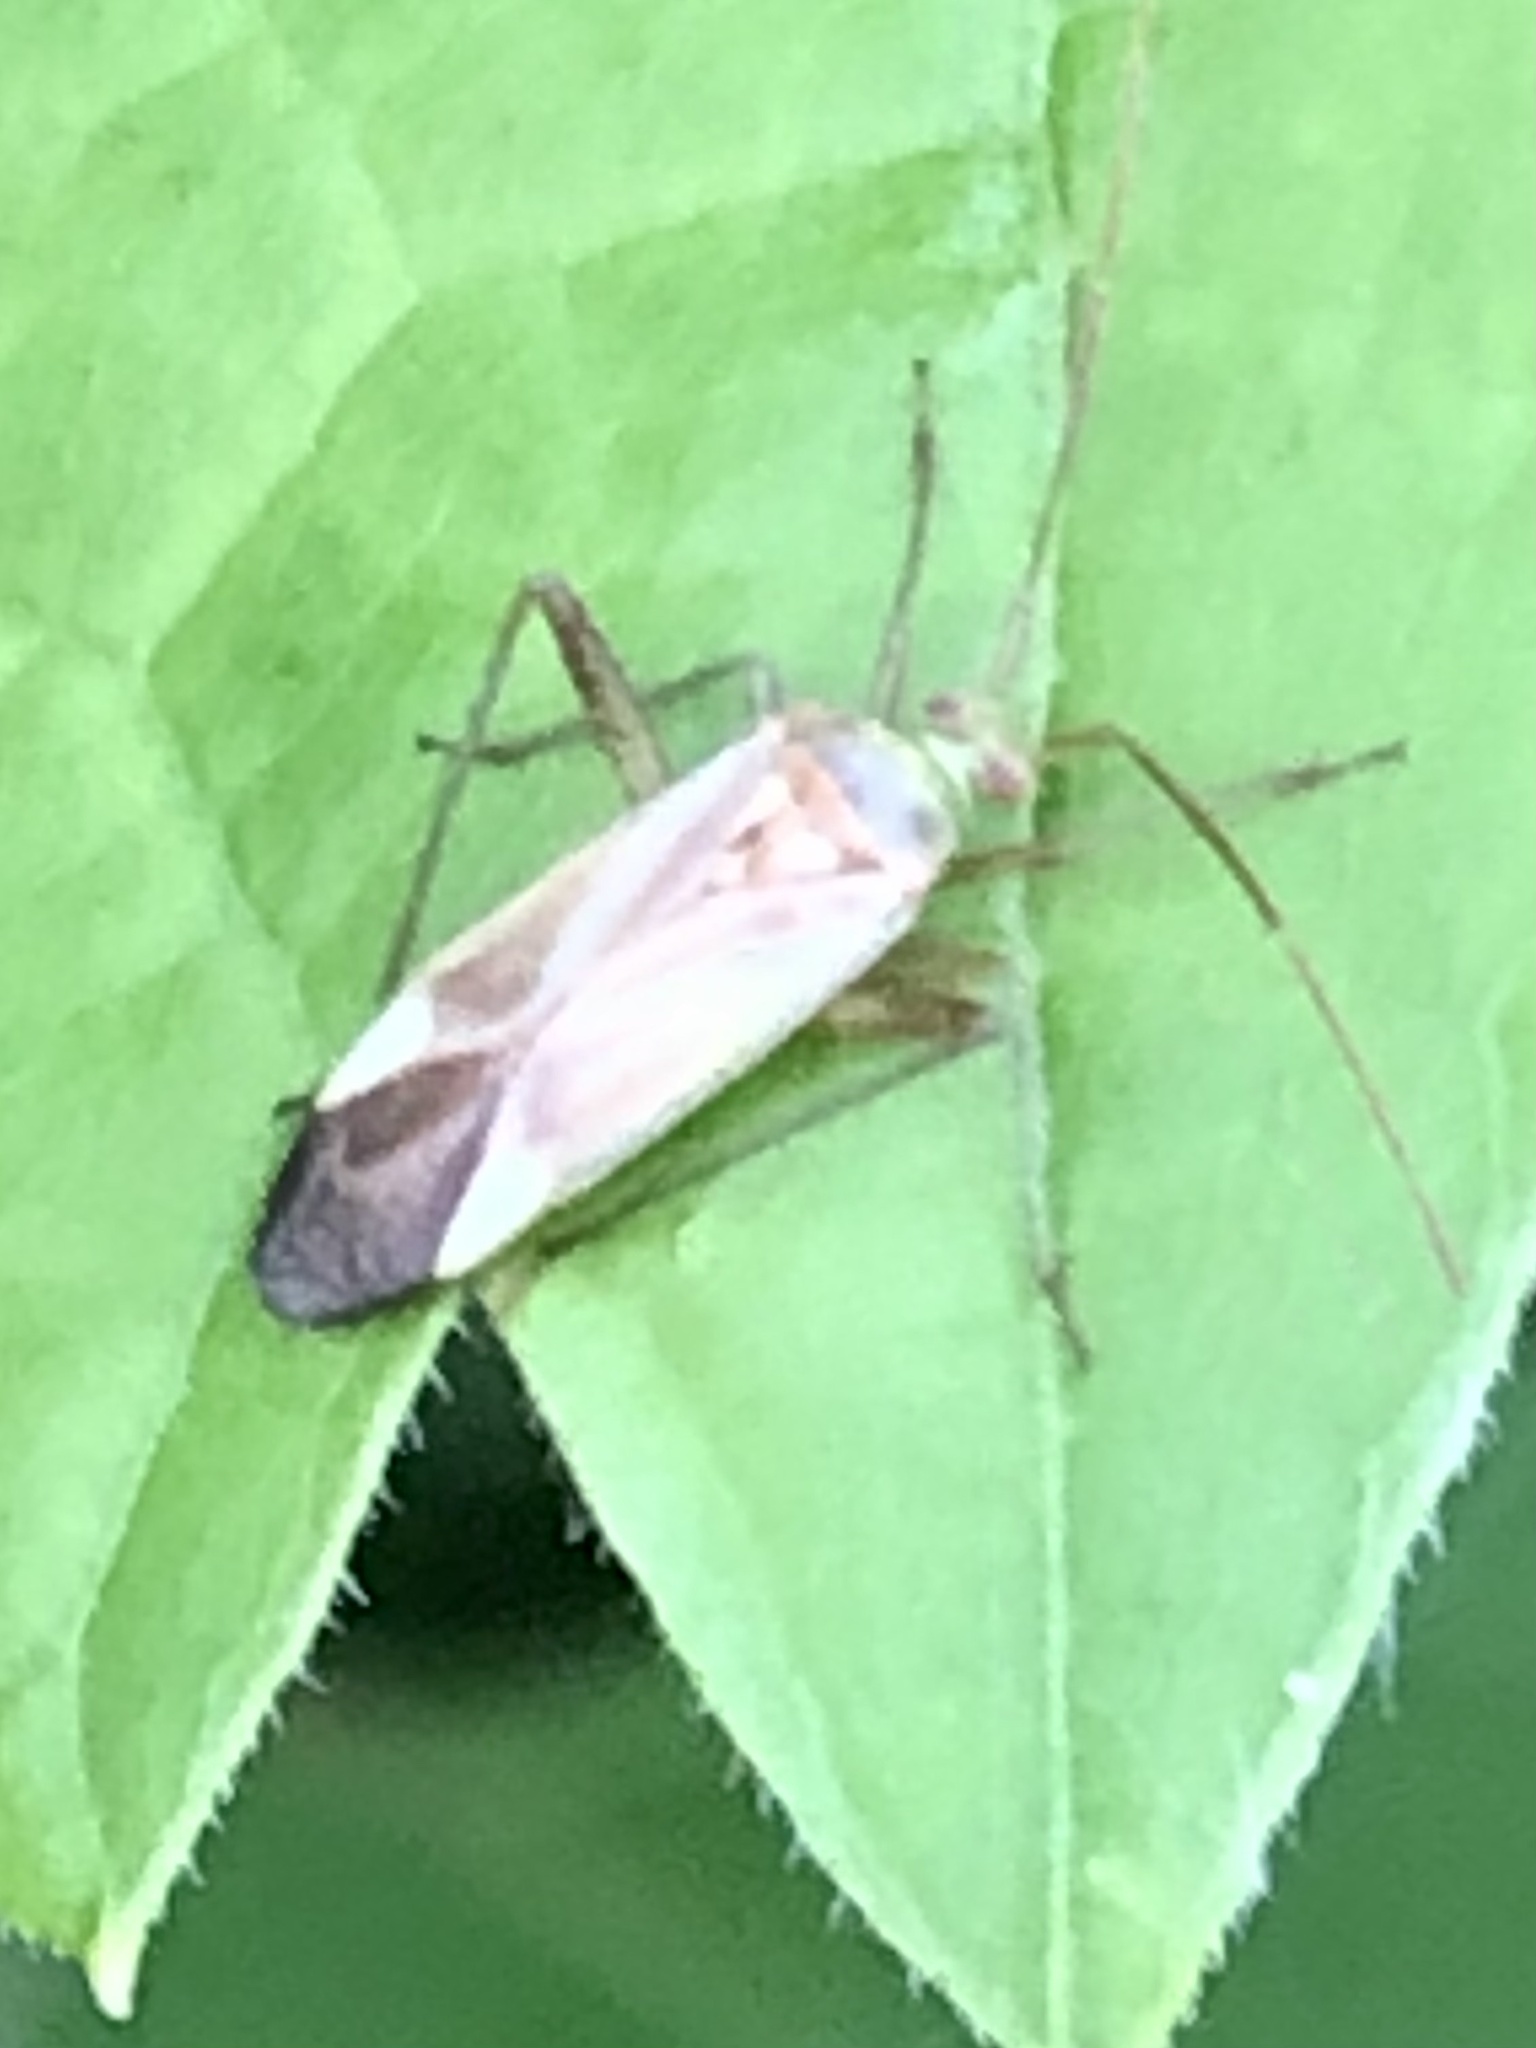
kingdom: Animalia
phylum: Arthropoda
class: Insecta
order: Hemiptera
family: Miridae
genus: Adelphocoris
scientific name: Adelphocoris lineolatus
